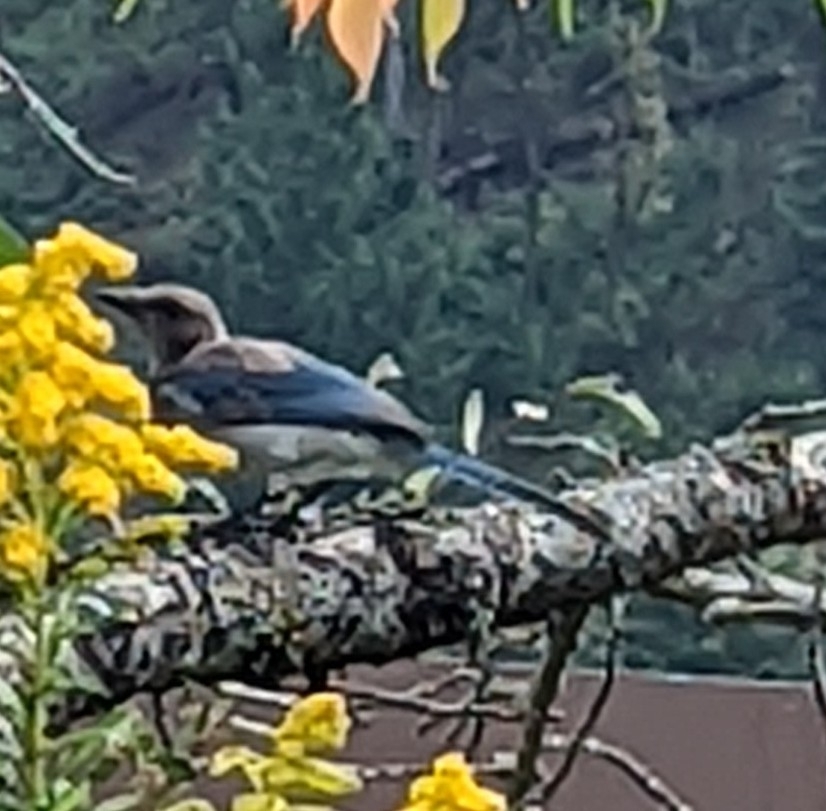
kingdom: Animalia
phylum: Chordata
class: Aves
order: Passeriformes
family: Corvidae
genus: Aphelocoma
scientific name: Aphelocoma californica
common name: California scrub-jay
